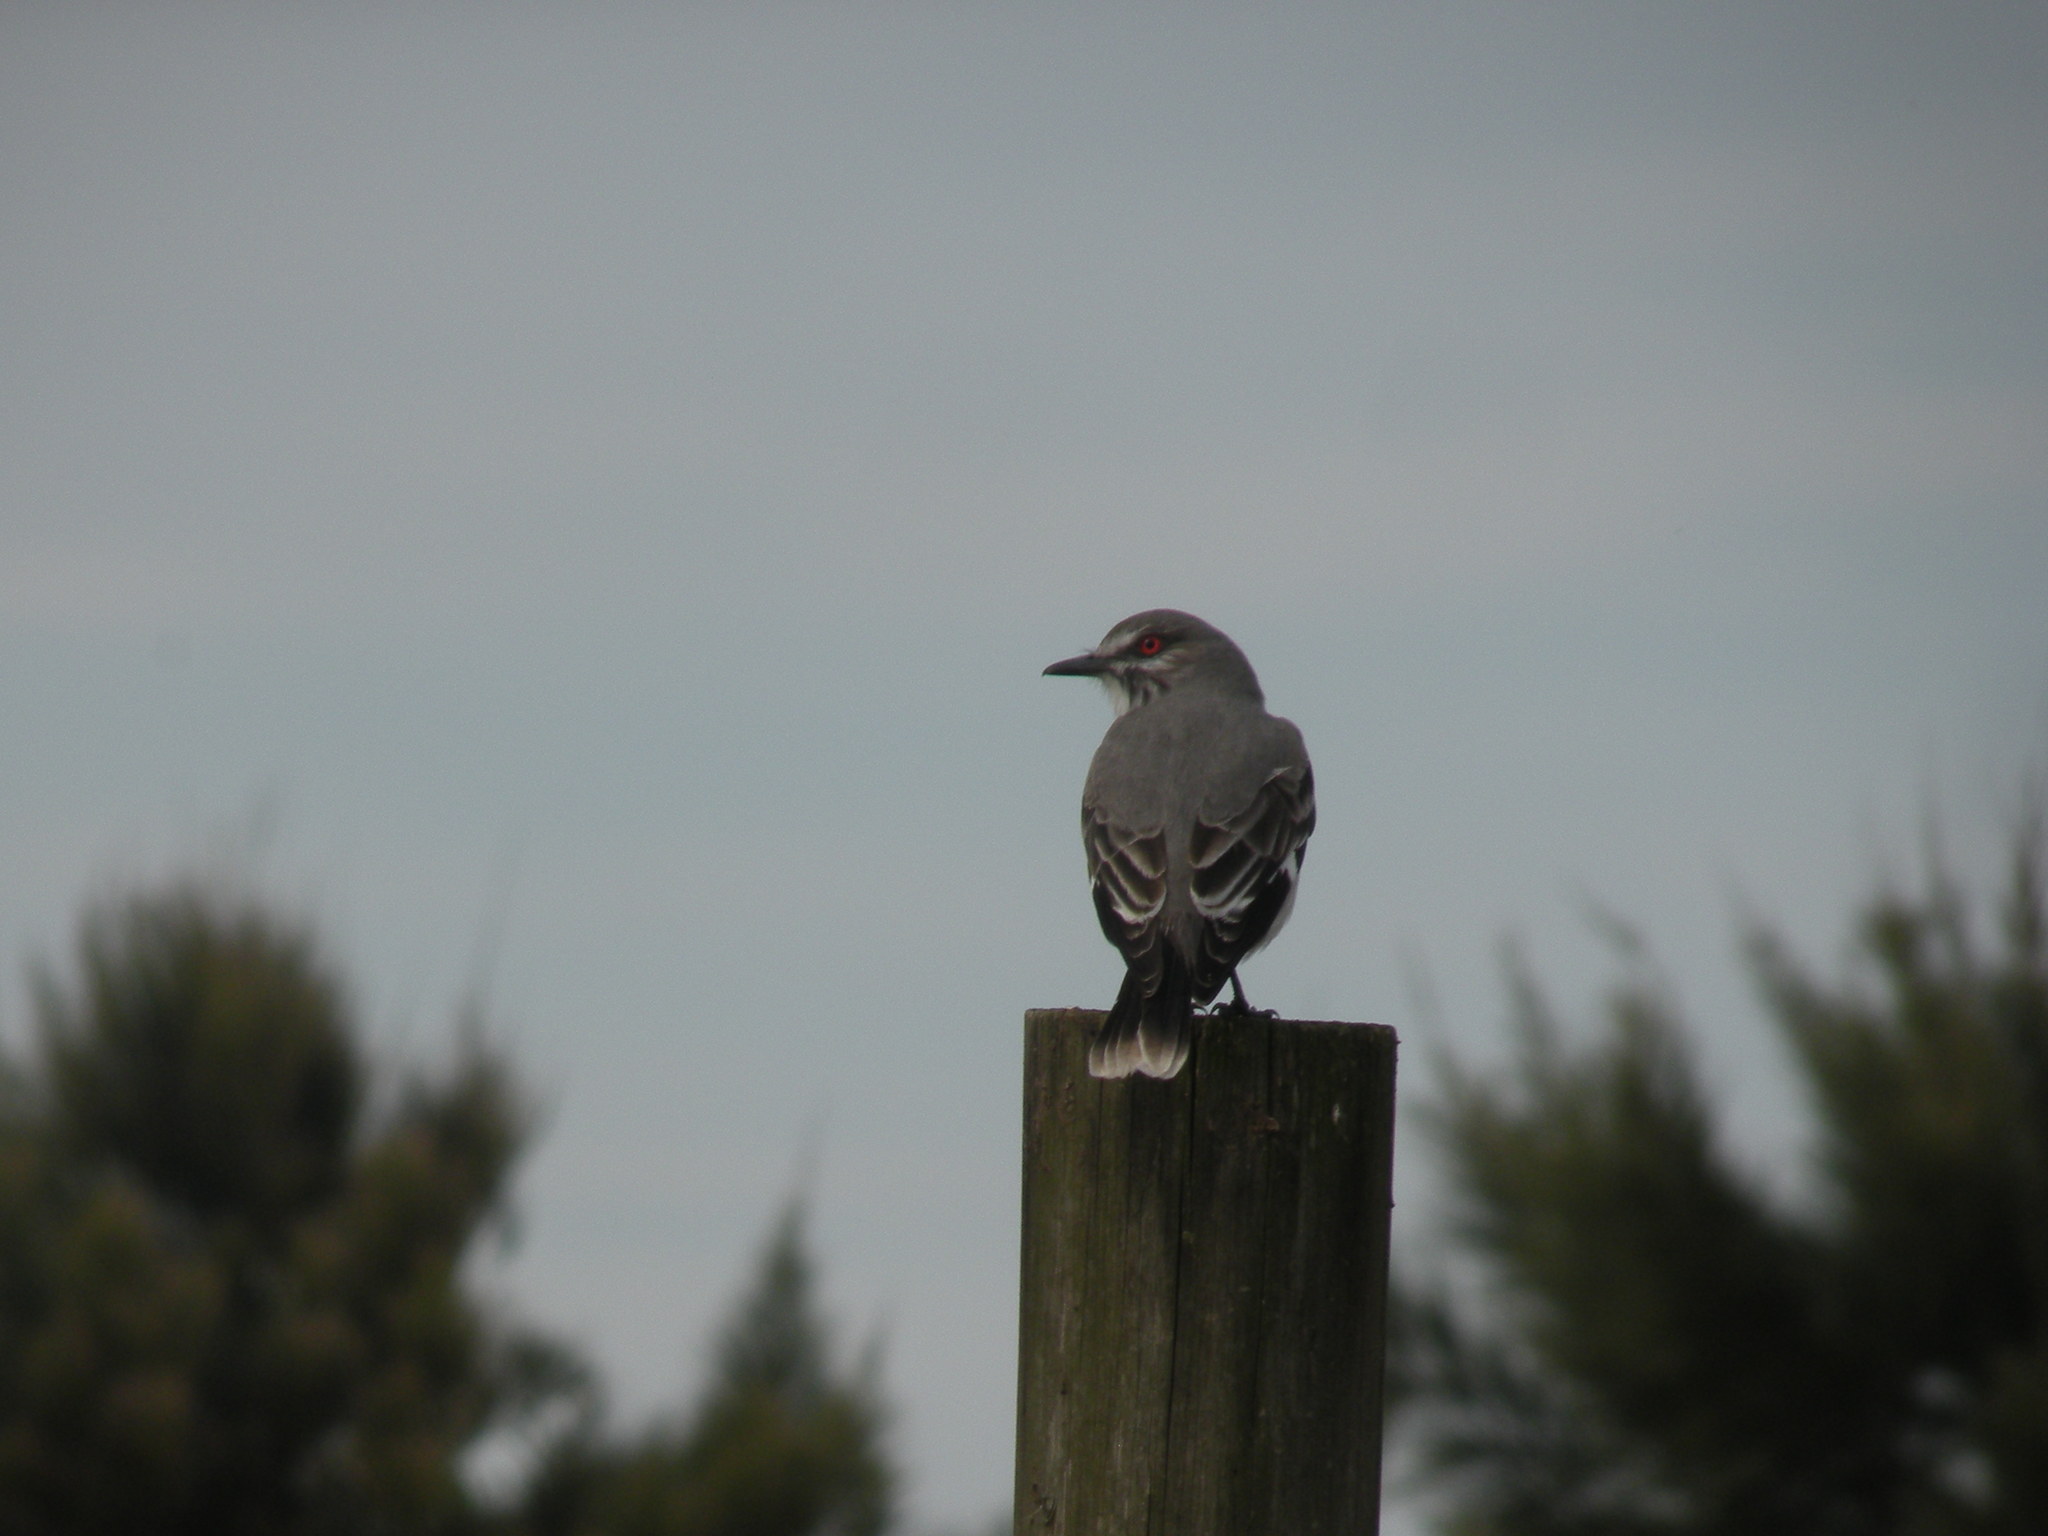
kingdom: Animalia
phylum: Chordata
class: Aves
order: Passeriformes
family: Tyrannidae
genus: Xolmis
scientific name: Xolmis cinereus
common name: Grey monjita
